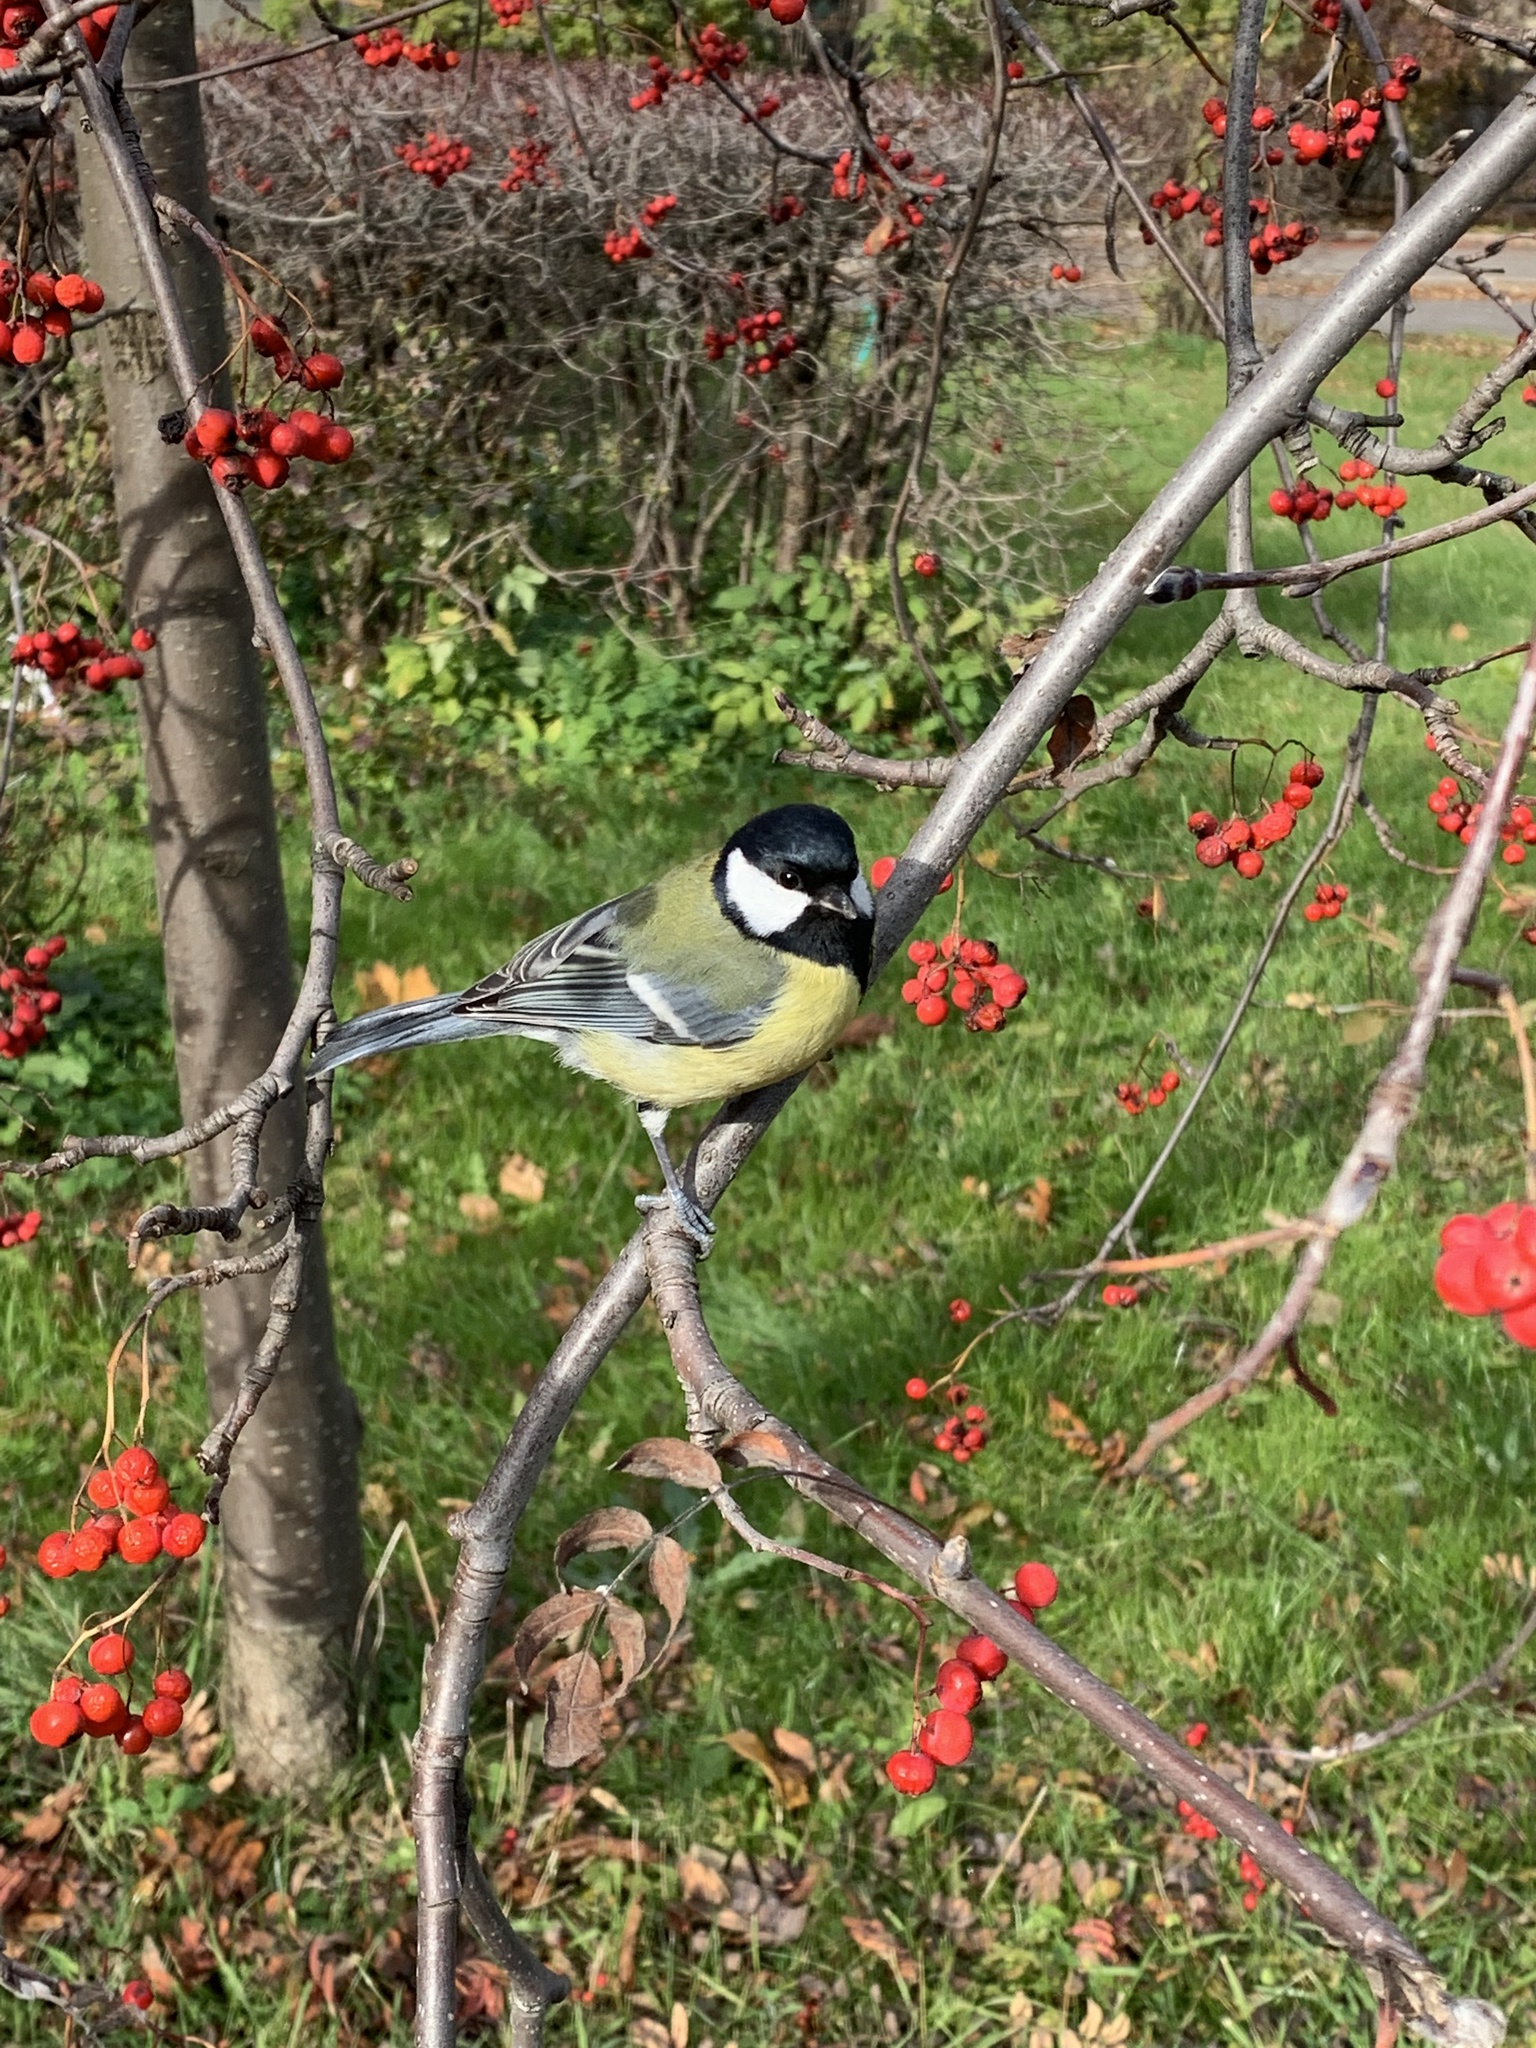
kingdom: Animalia
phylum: Chordata
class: Aves
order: Passeriformes
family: Paridae
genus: Parus
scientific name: Parus major
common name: Great tit
